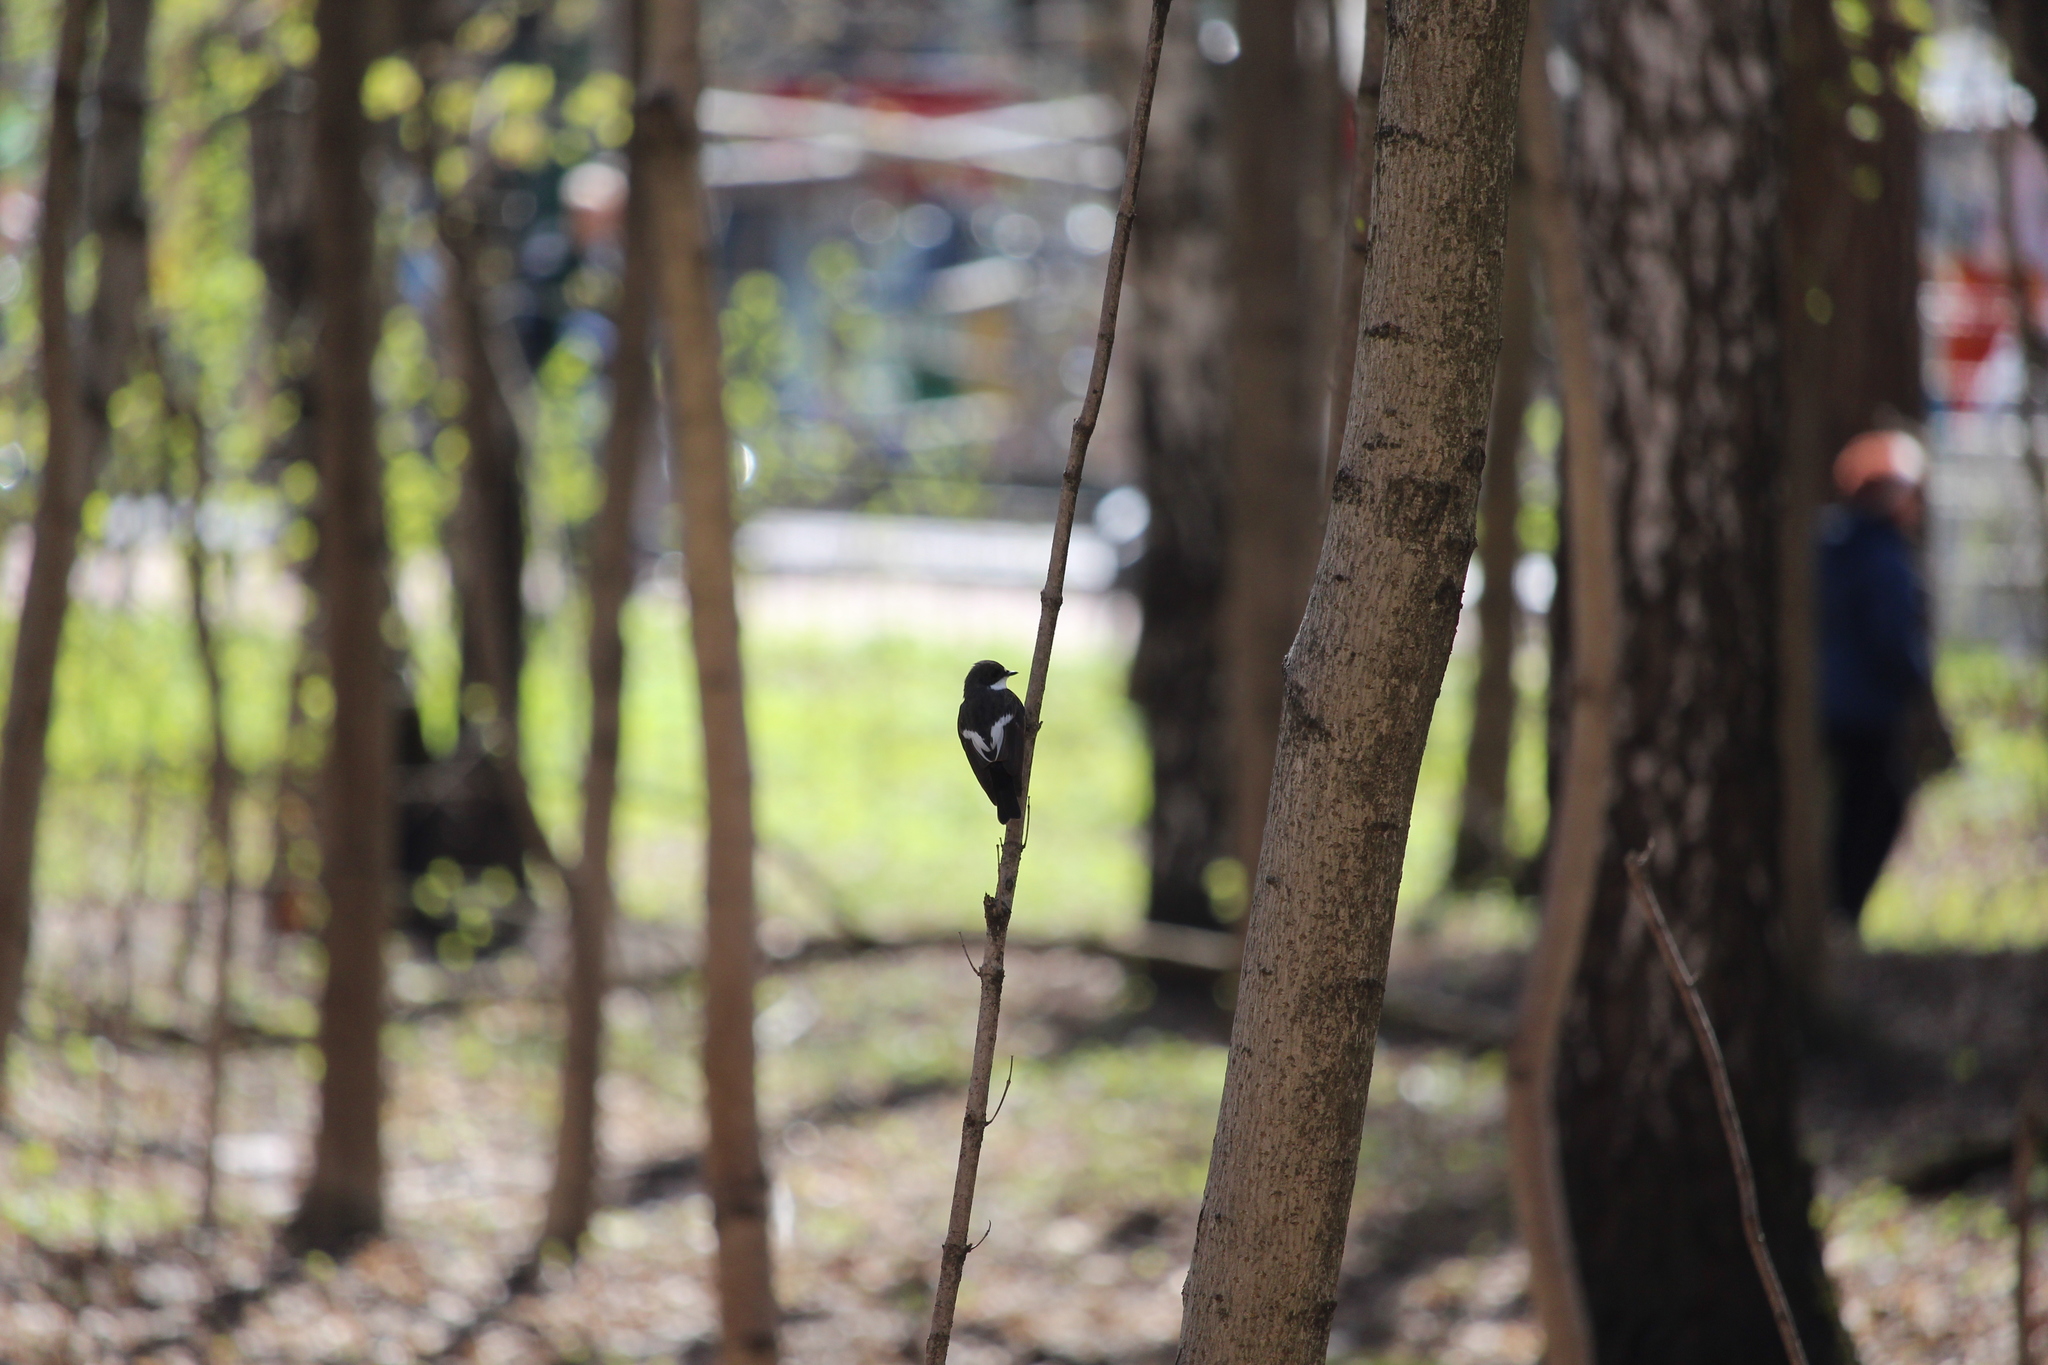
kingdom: Animalia
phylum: Chordata
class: Aves
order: Passeriformes
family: Muscicapidae
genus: Ficedula
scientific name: Ficedula hypoleuca
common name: European pied flycatcher
